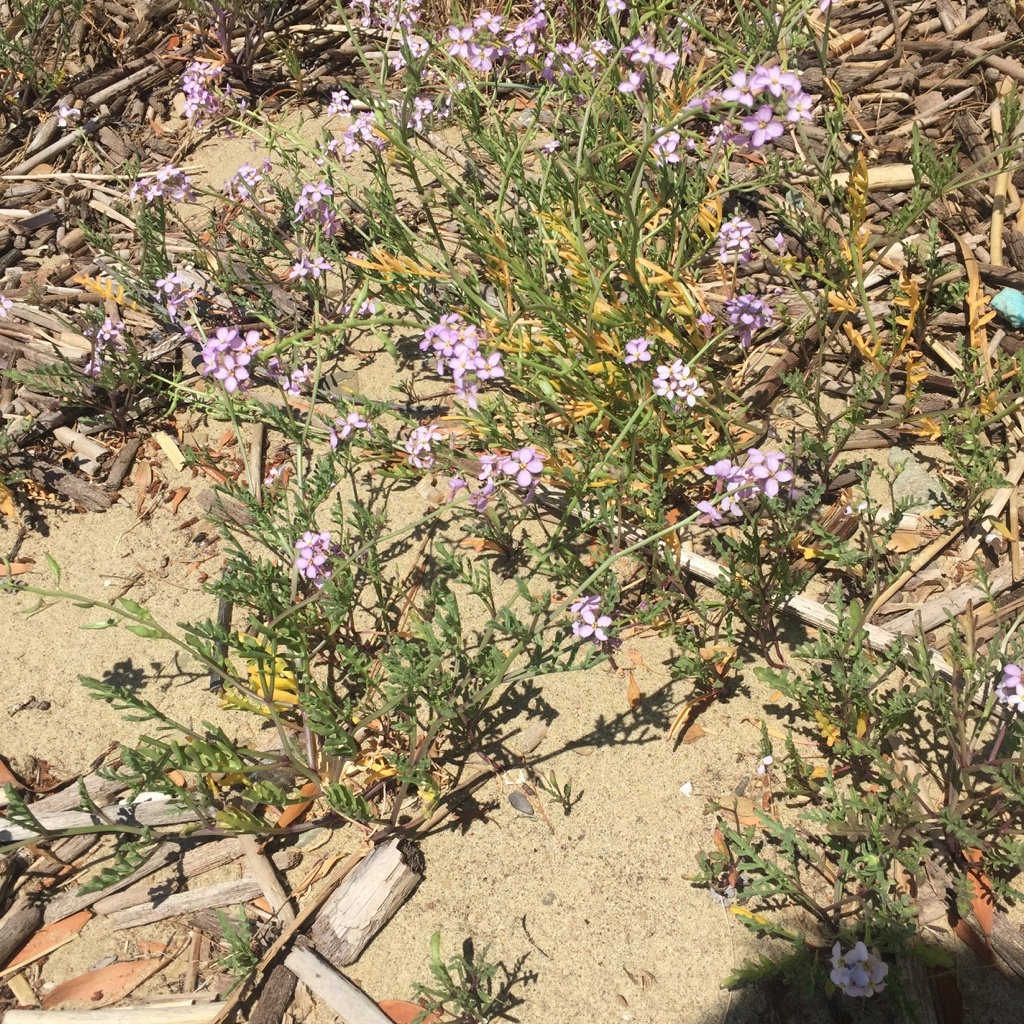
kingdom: Plantae
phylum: Tracheophyta
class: Magnoliopsida
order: Brassicales
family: Brassicaceae
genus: Cakile
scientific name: Cakile maritima
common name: Sea rocket
